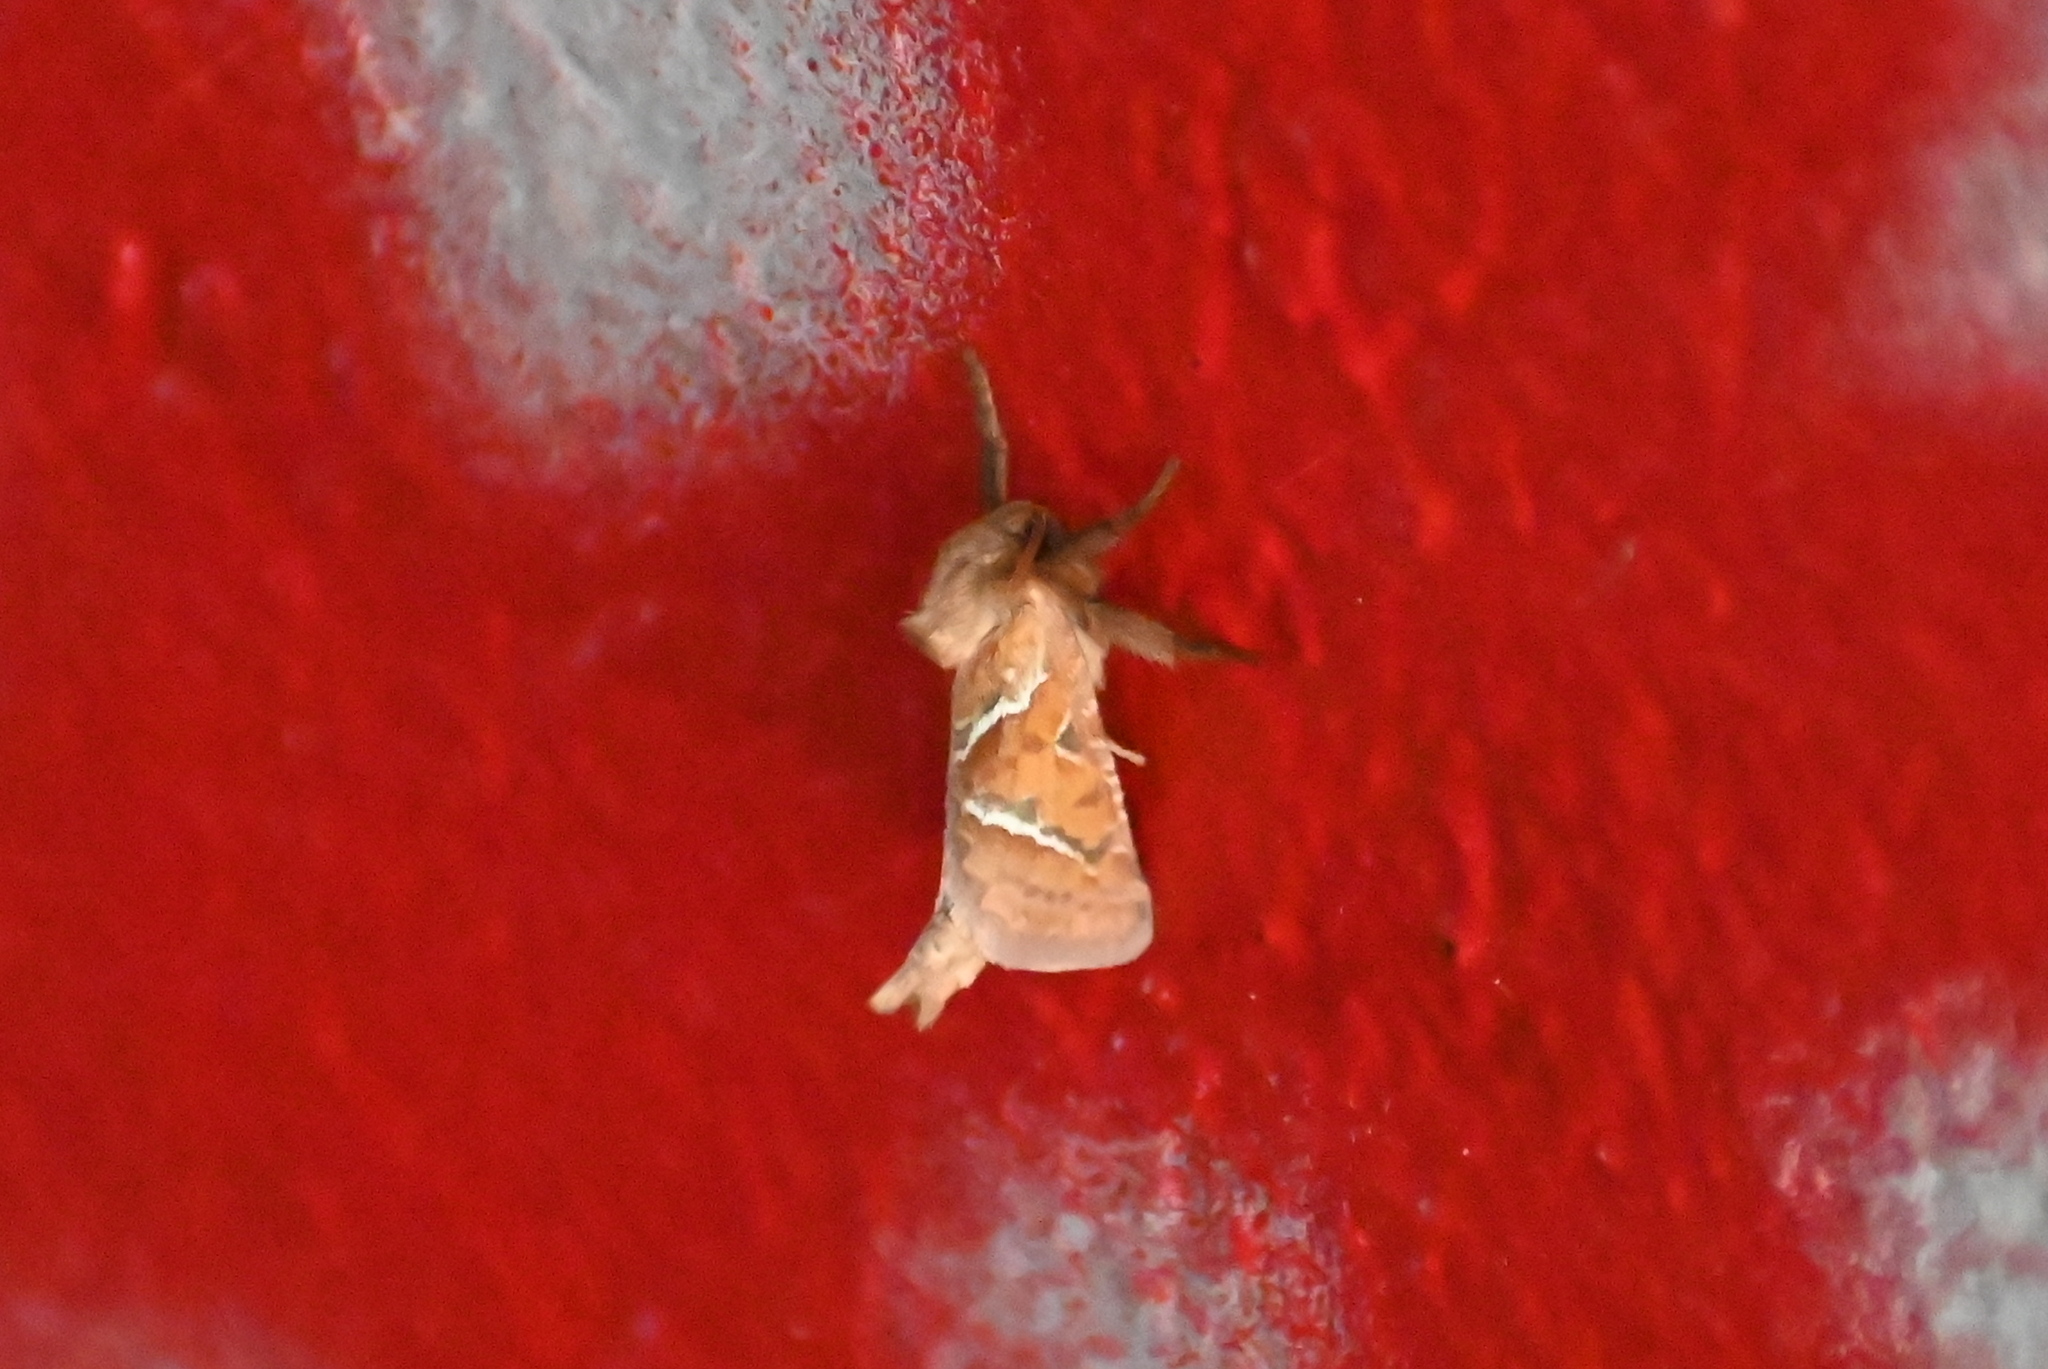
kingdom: Animalia
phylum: Arthropoda
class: Insecta
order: Lepidoptera
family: Hepialidae
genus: Triodia
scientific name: Triodia sylvina
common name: Orange swift
